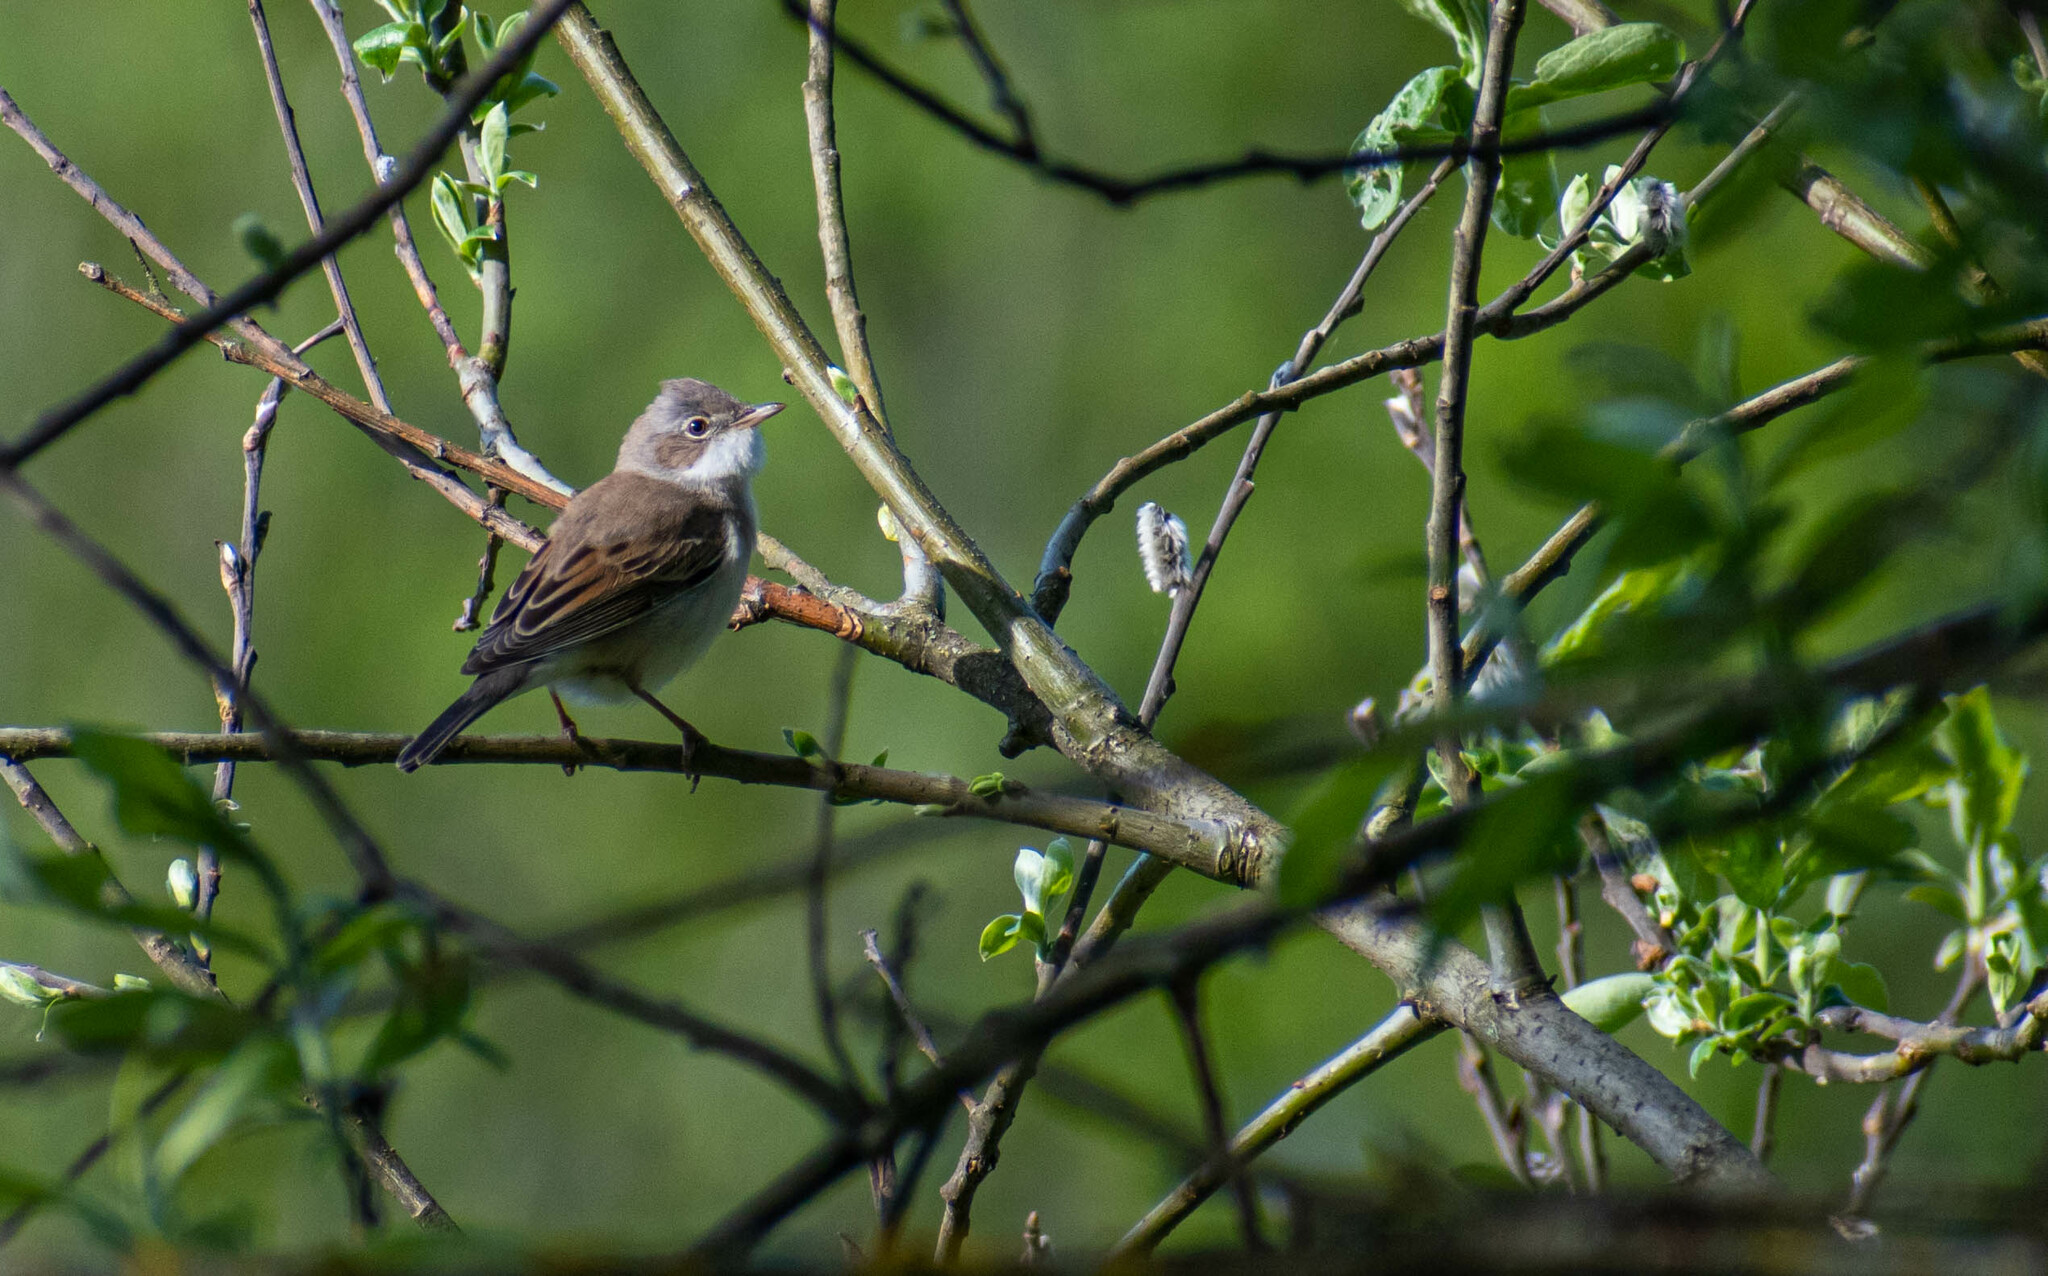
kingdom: Animalia
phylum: Chordata
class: Aves
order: Passeriformes
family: Sylviidae
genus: Sylvia
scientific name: Sylvia communis
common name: Common whitethroat
